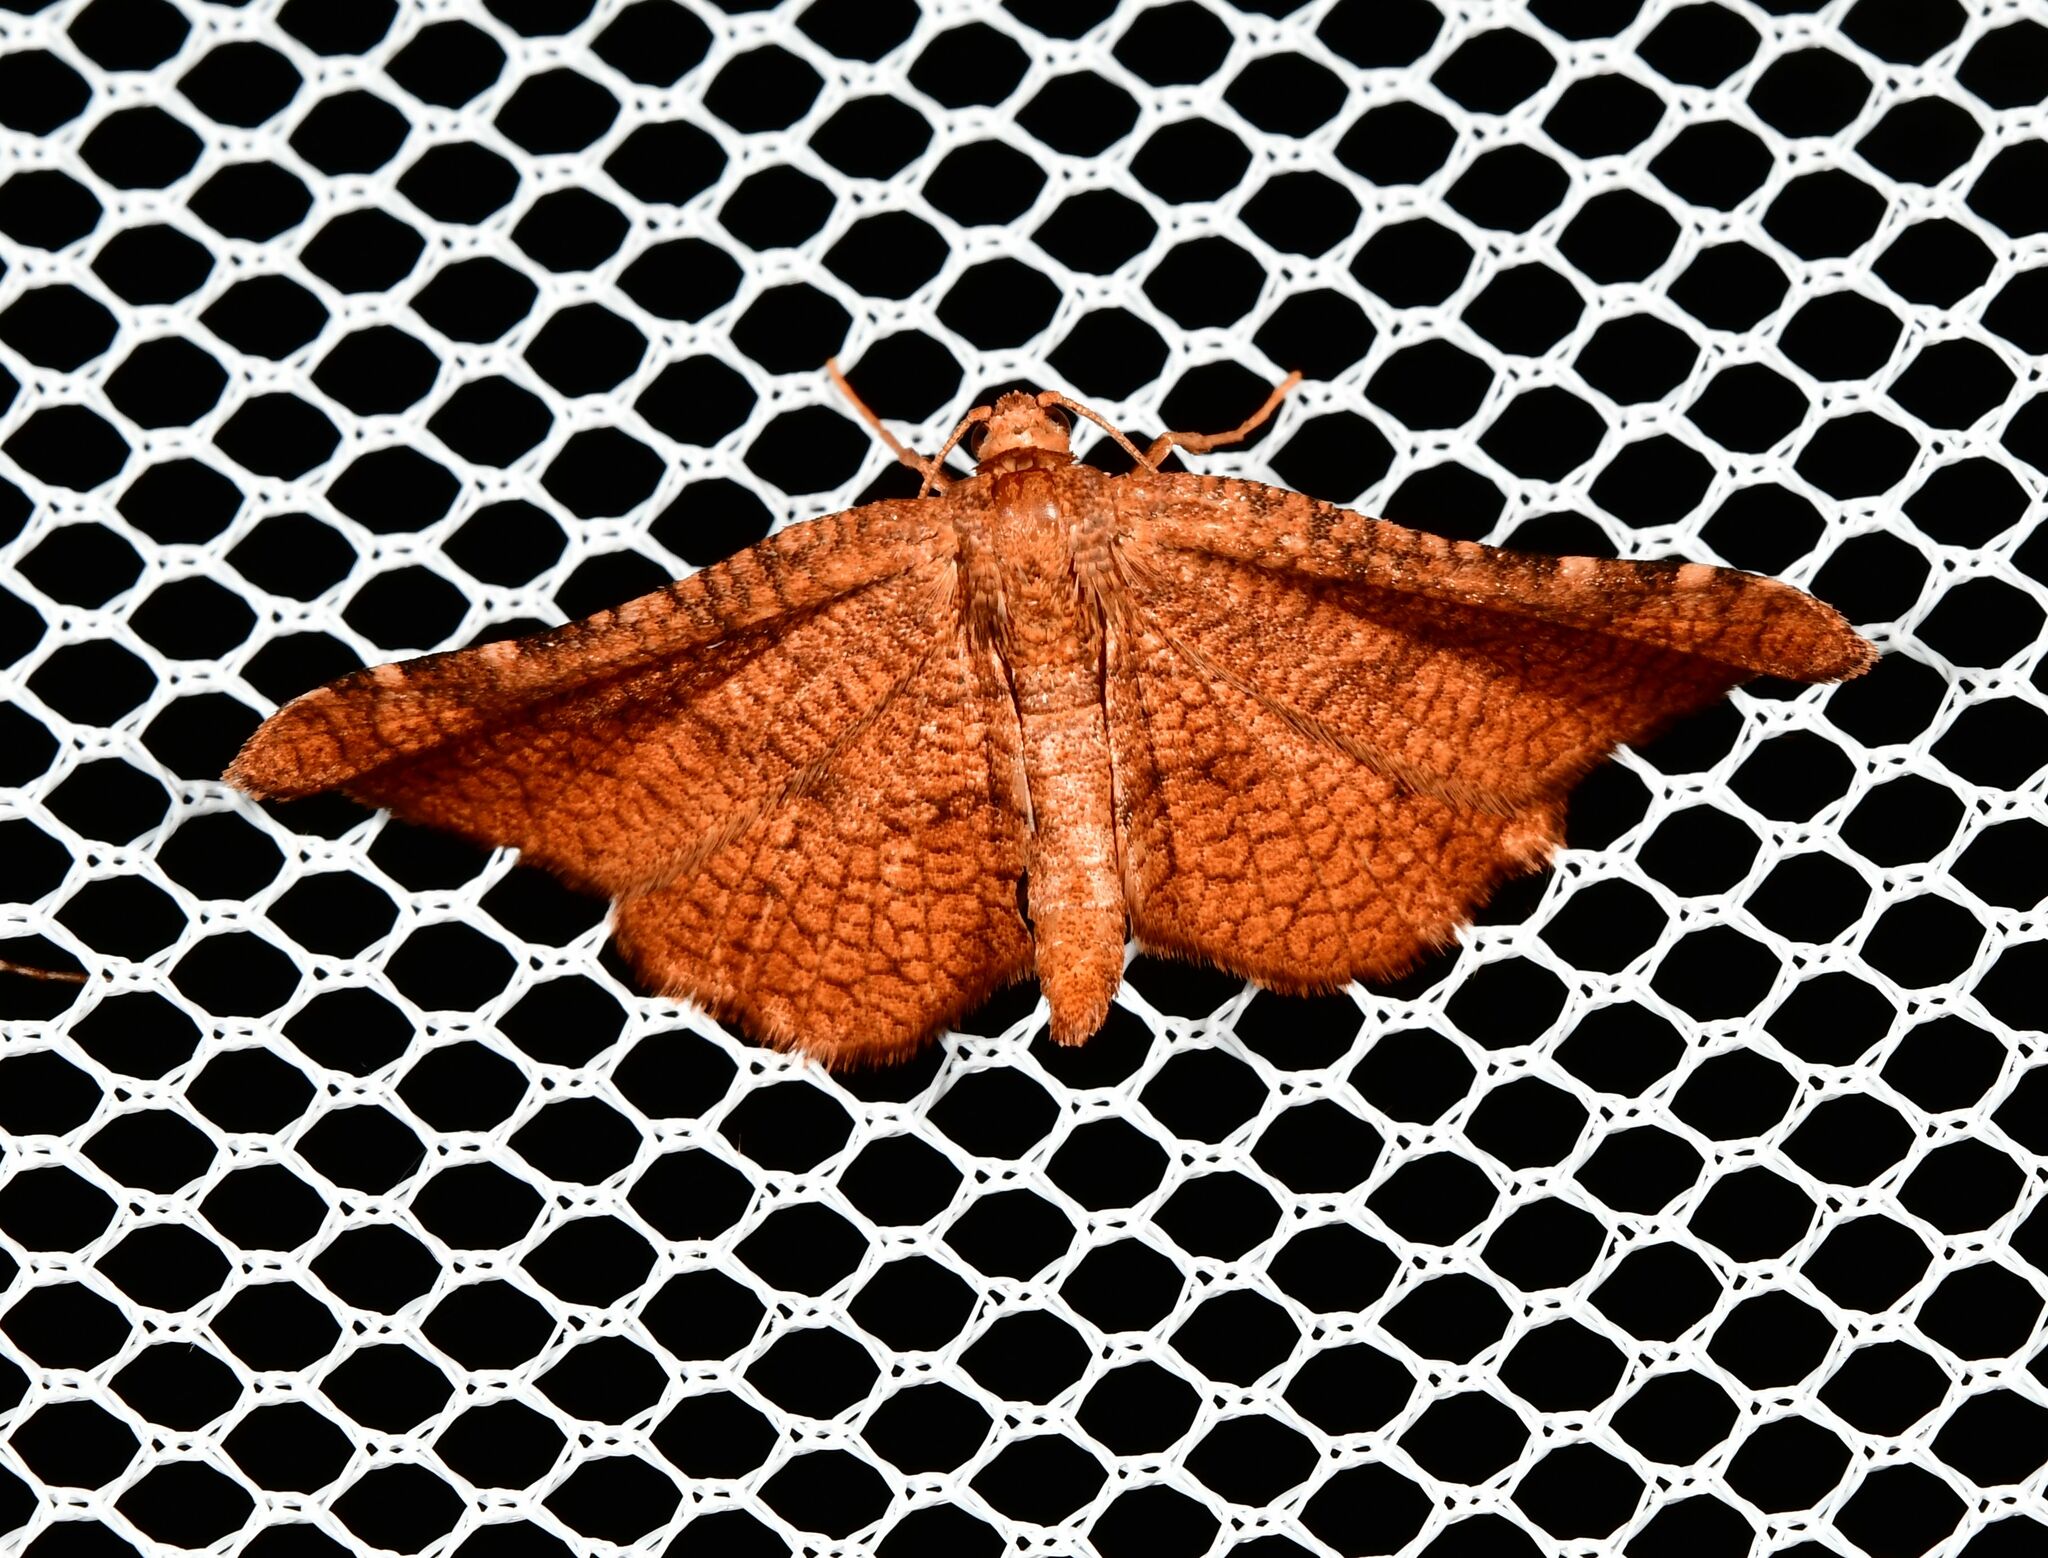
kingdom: Animalia
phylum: Arthropoda
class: Insecta
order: Lepidoptera
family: Thyrididae
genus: Morova
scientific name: Morova subfasciata
